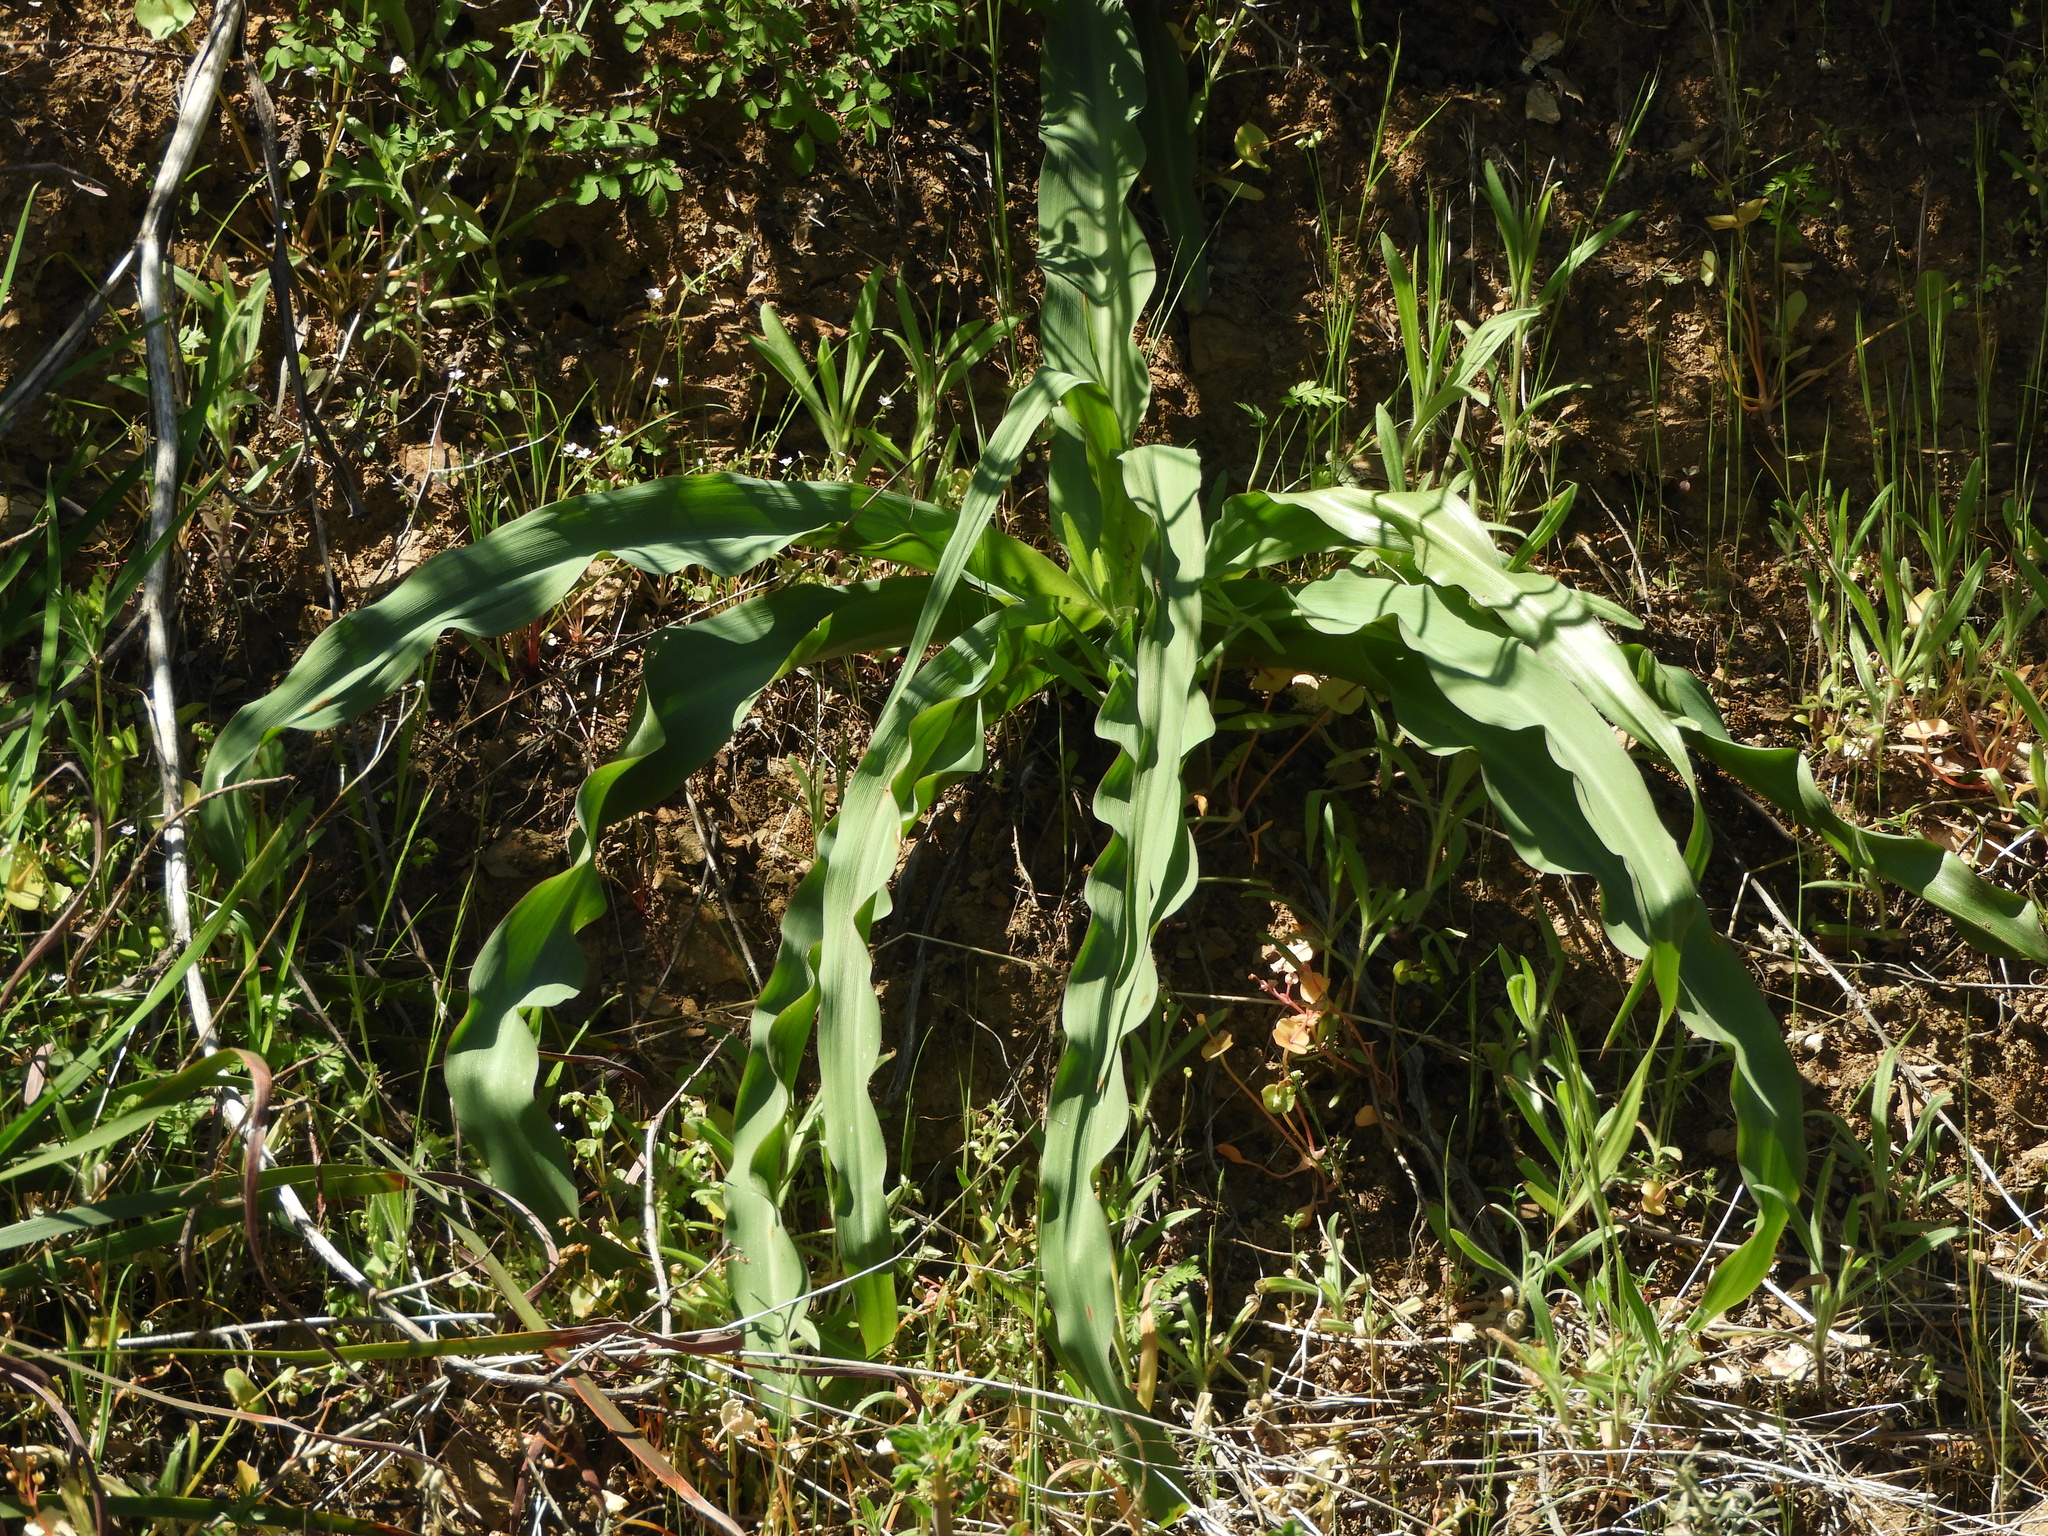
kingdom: Plantae
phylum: Tracheophyta
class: Liliopsida
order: Asparagales
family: Asparagaceae
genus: Chlorogalum
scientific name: Chlorogalum pomeridianum
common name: Amole
